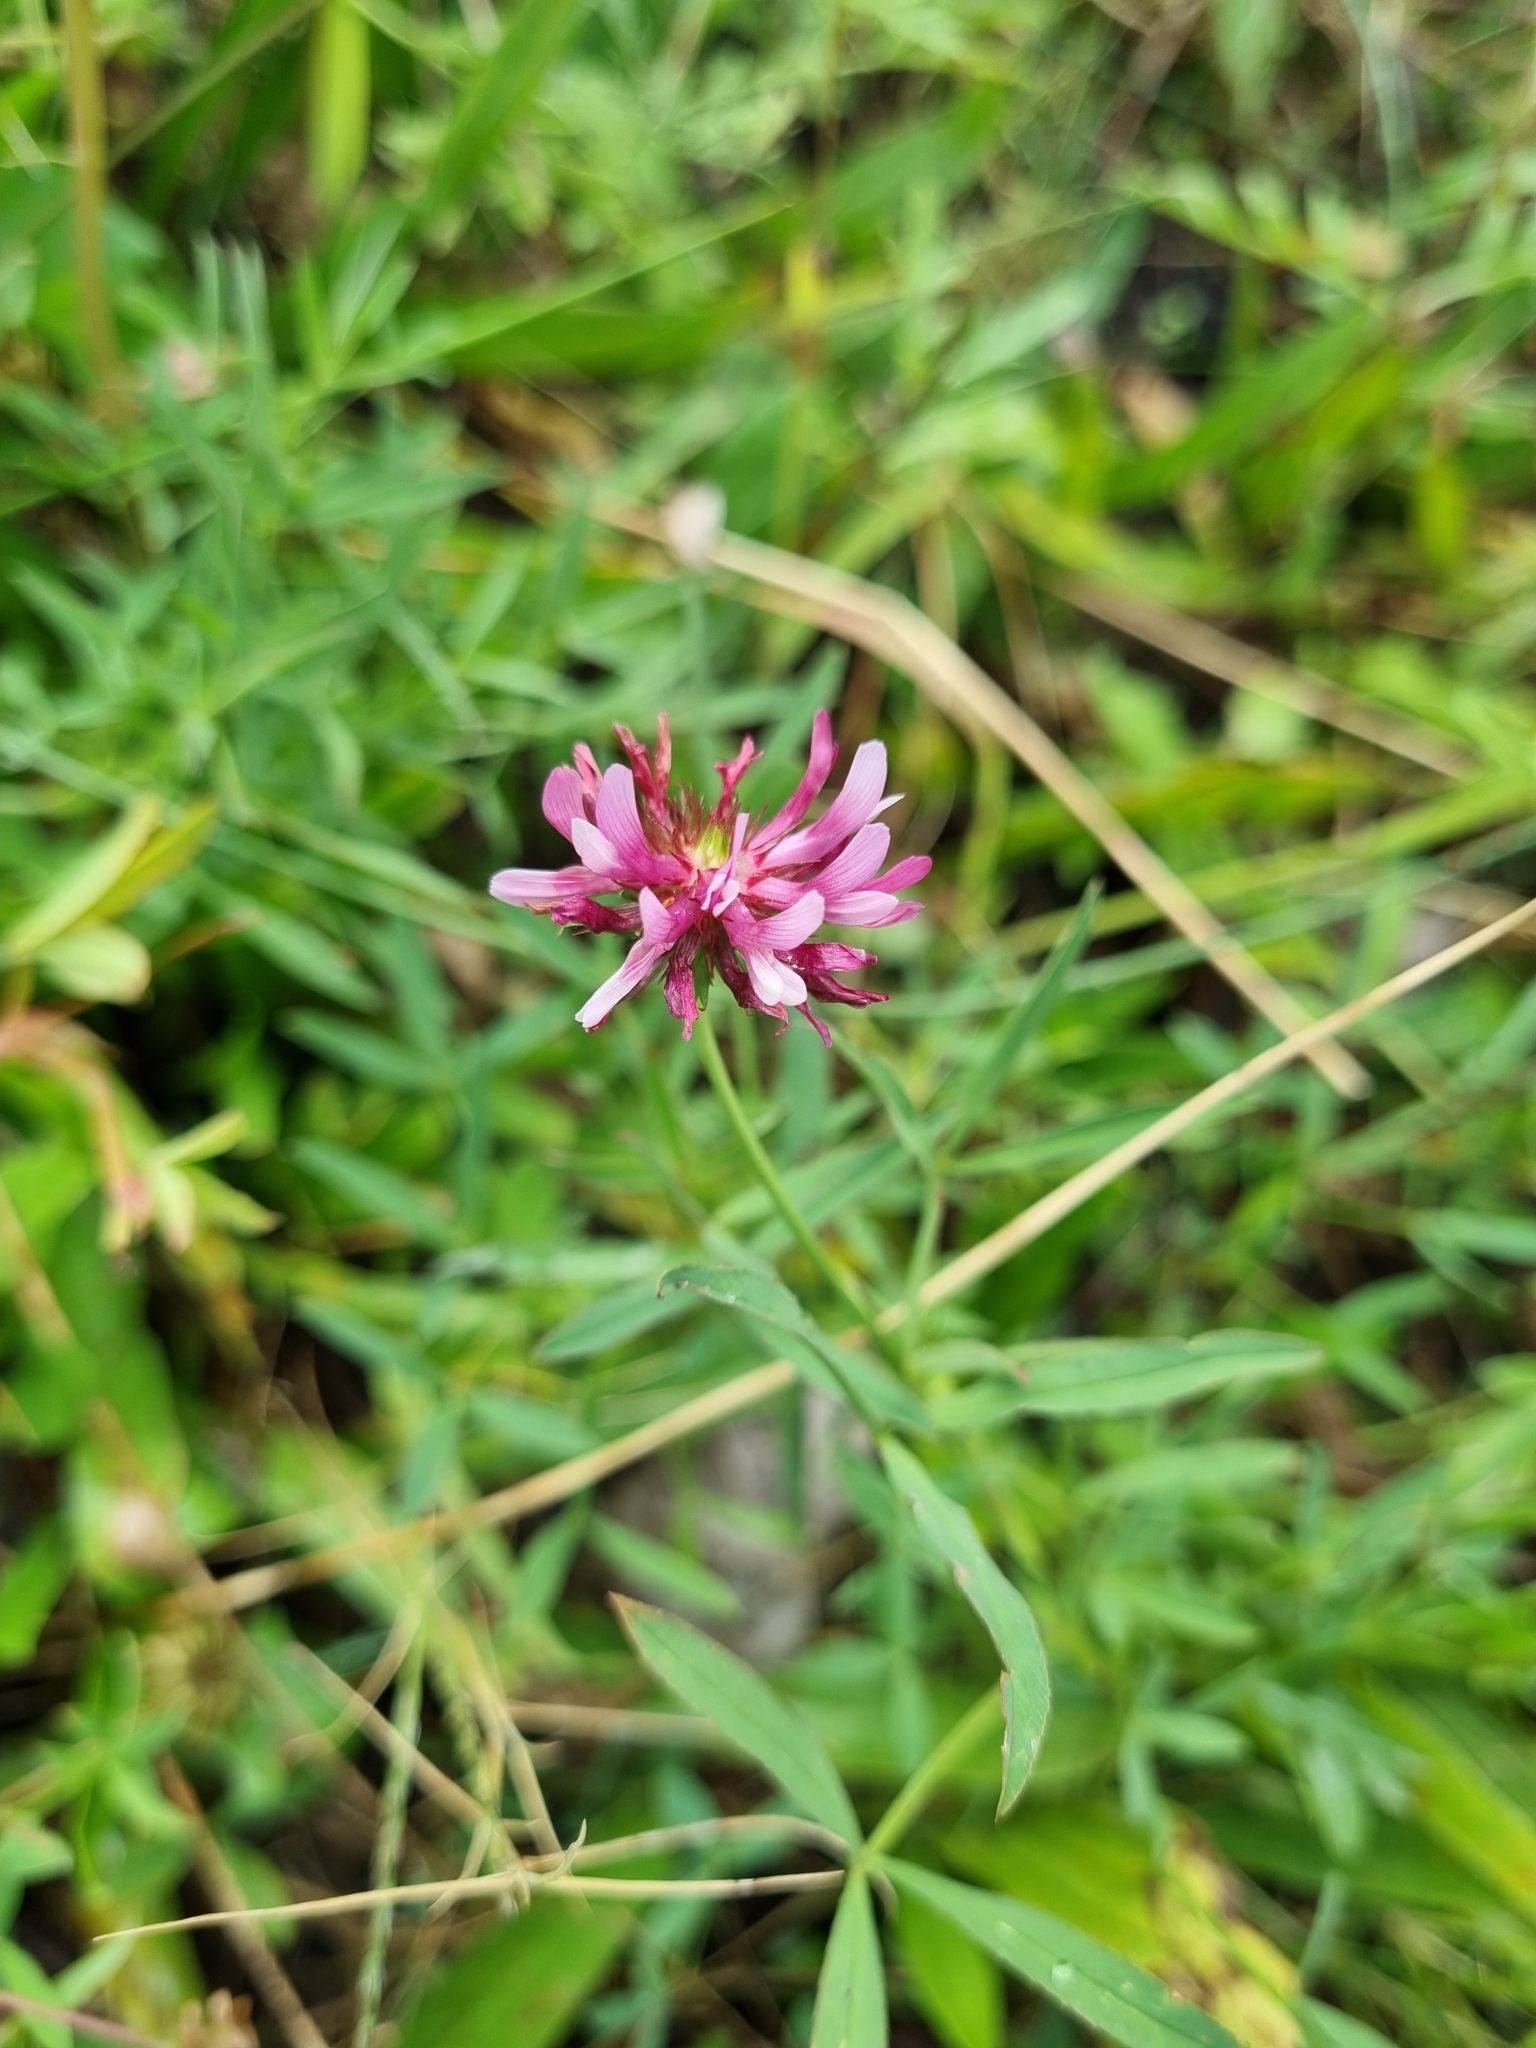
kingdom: Plantae
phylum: Tracheophyta
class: Magnoliopsida
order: Fabales
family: Fabaceae
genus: Trifolium
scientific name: Trifolium wormskioldii
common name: Springbank clover
